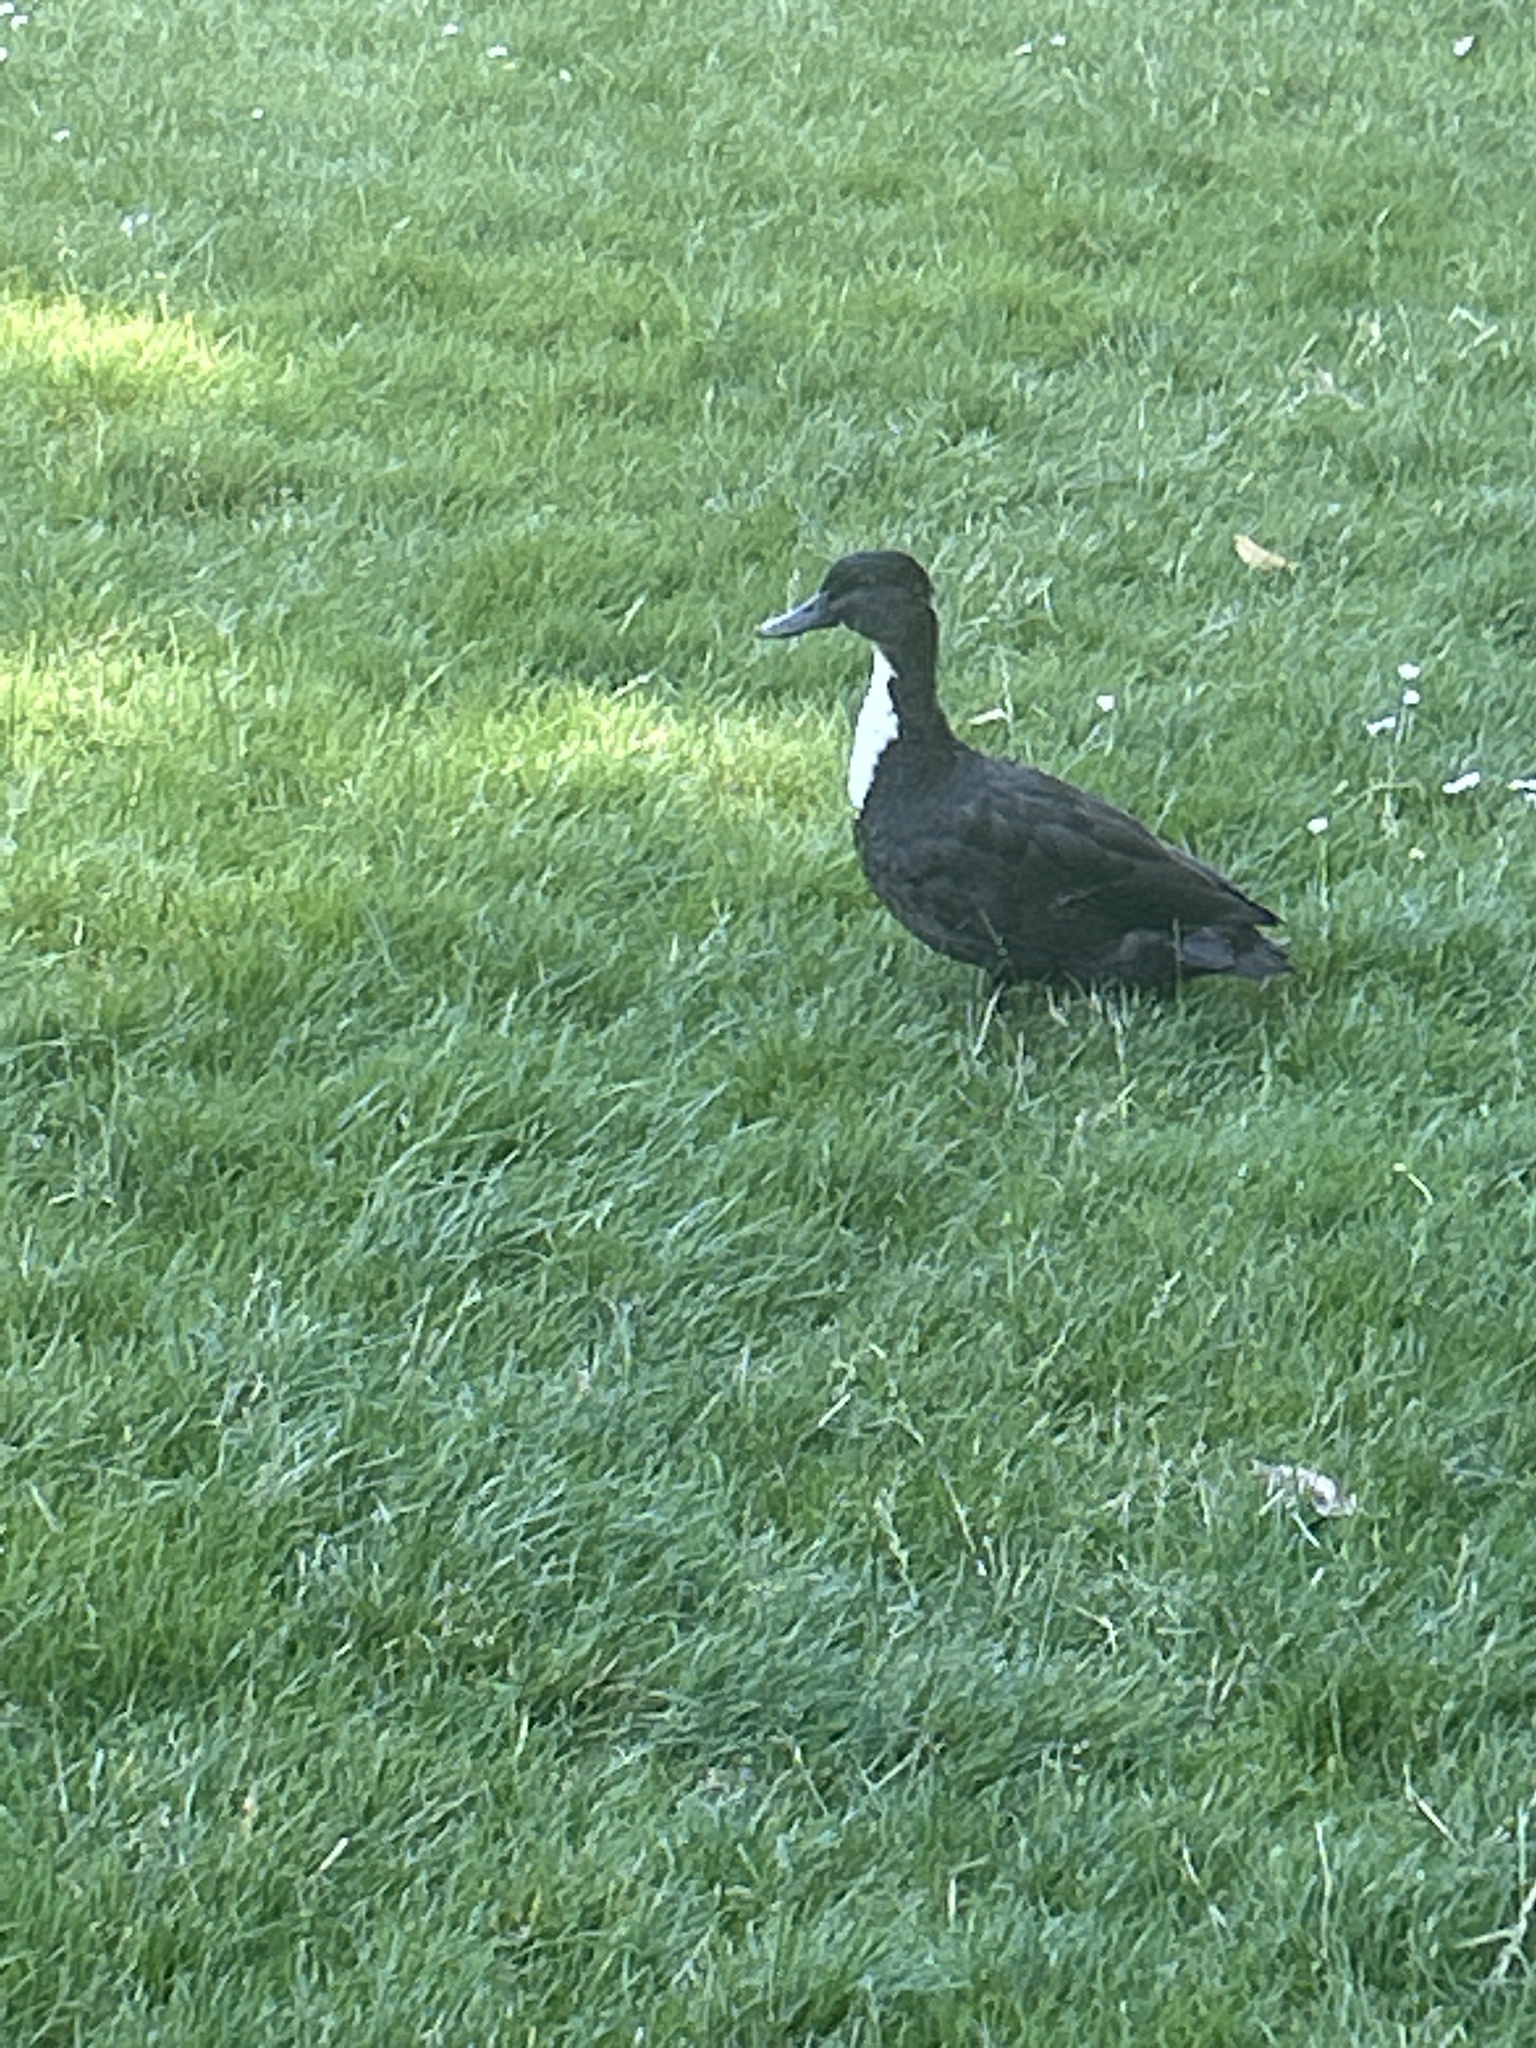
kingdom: Animalia
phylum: Chordata
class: Aves
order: Anseriformes
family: Anatidae
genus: Anas
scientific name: Anas platyrhynchos
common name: Mallard
